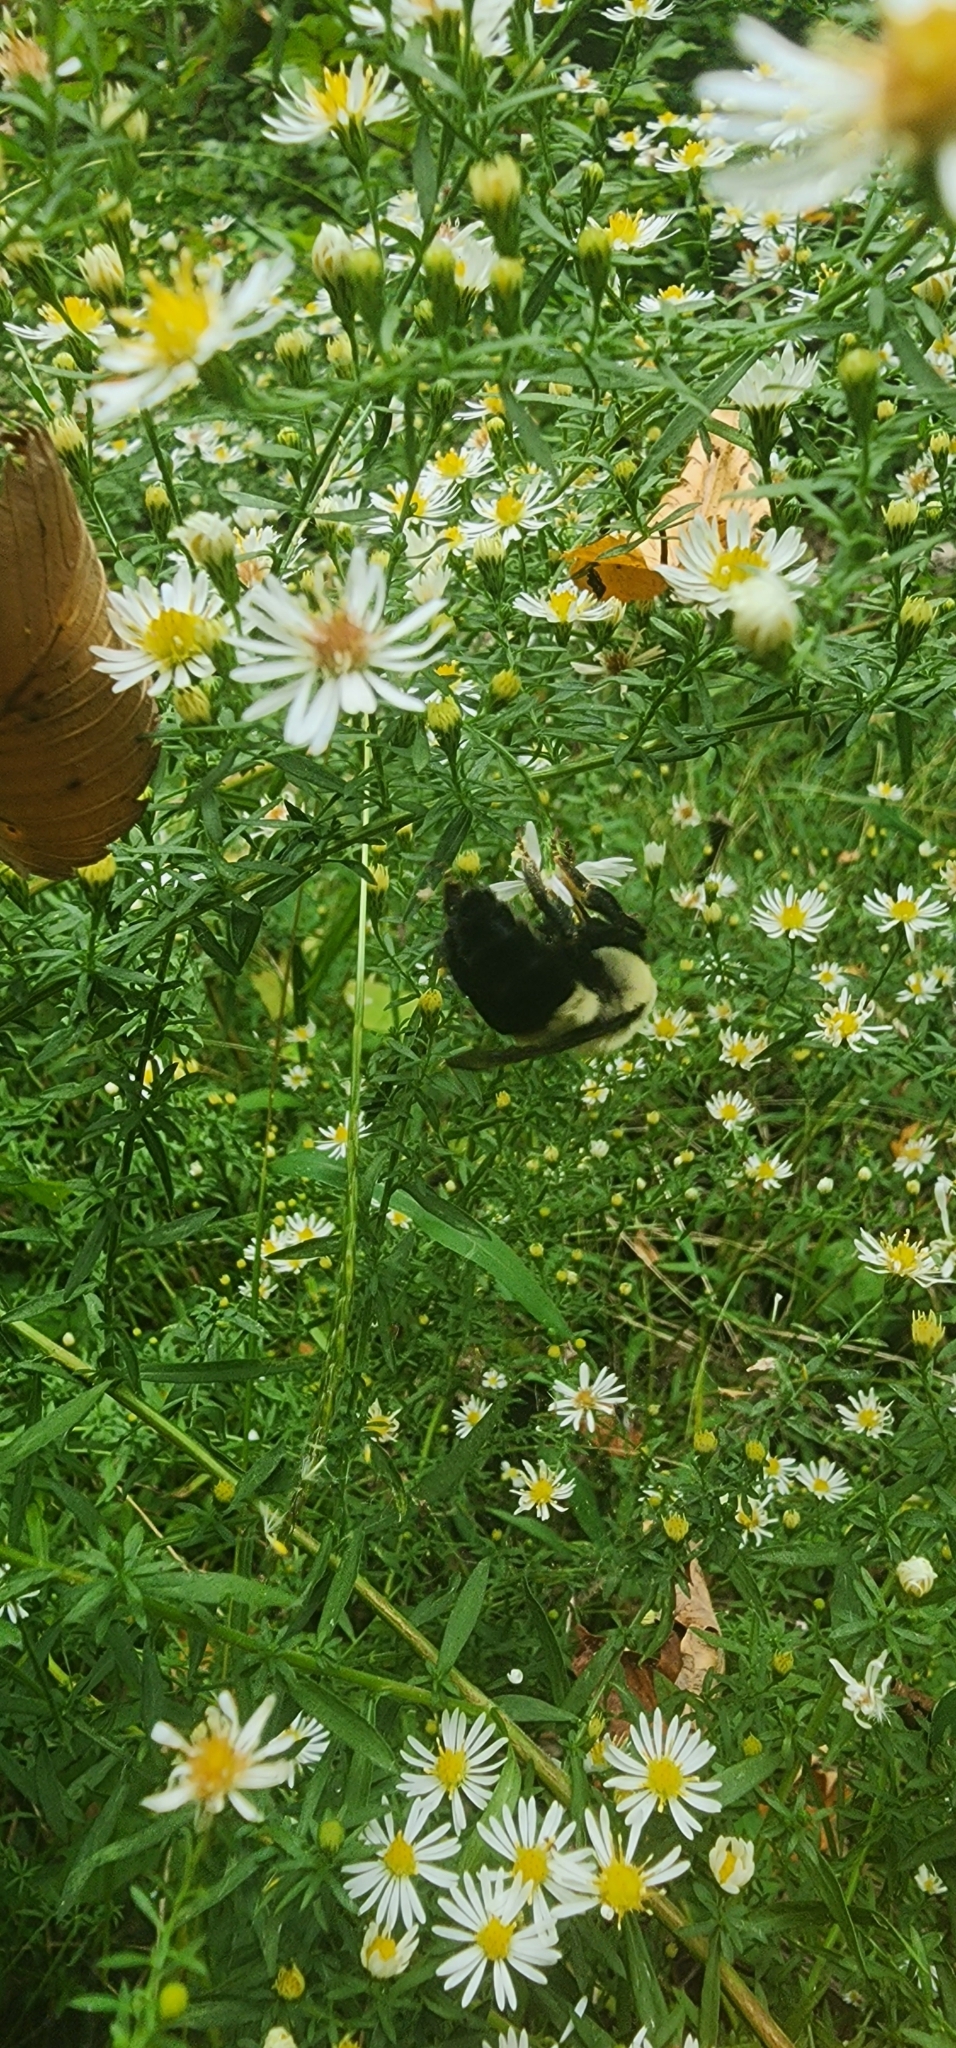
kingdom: Animalia
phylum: Arthropoda
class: Insecta
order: Hymenoptera
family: Apidae
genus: Bombus
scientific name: Bombus impatiens
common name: Common eastern bumble bee
